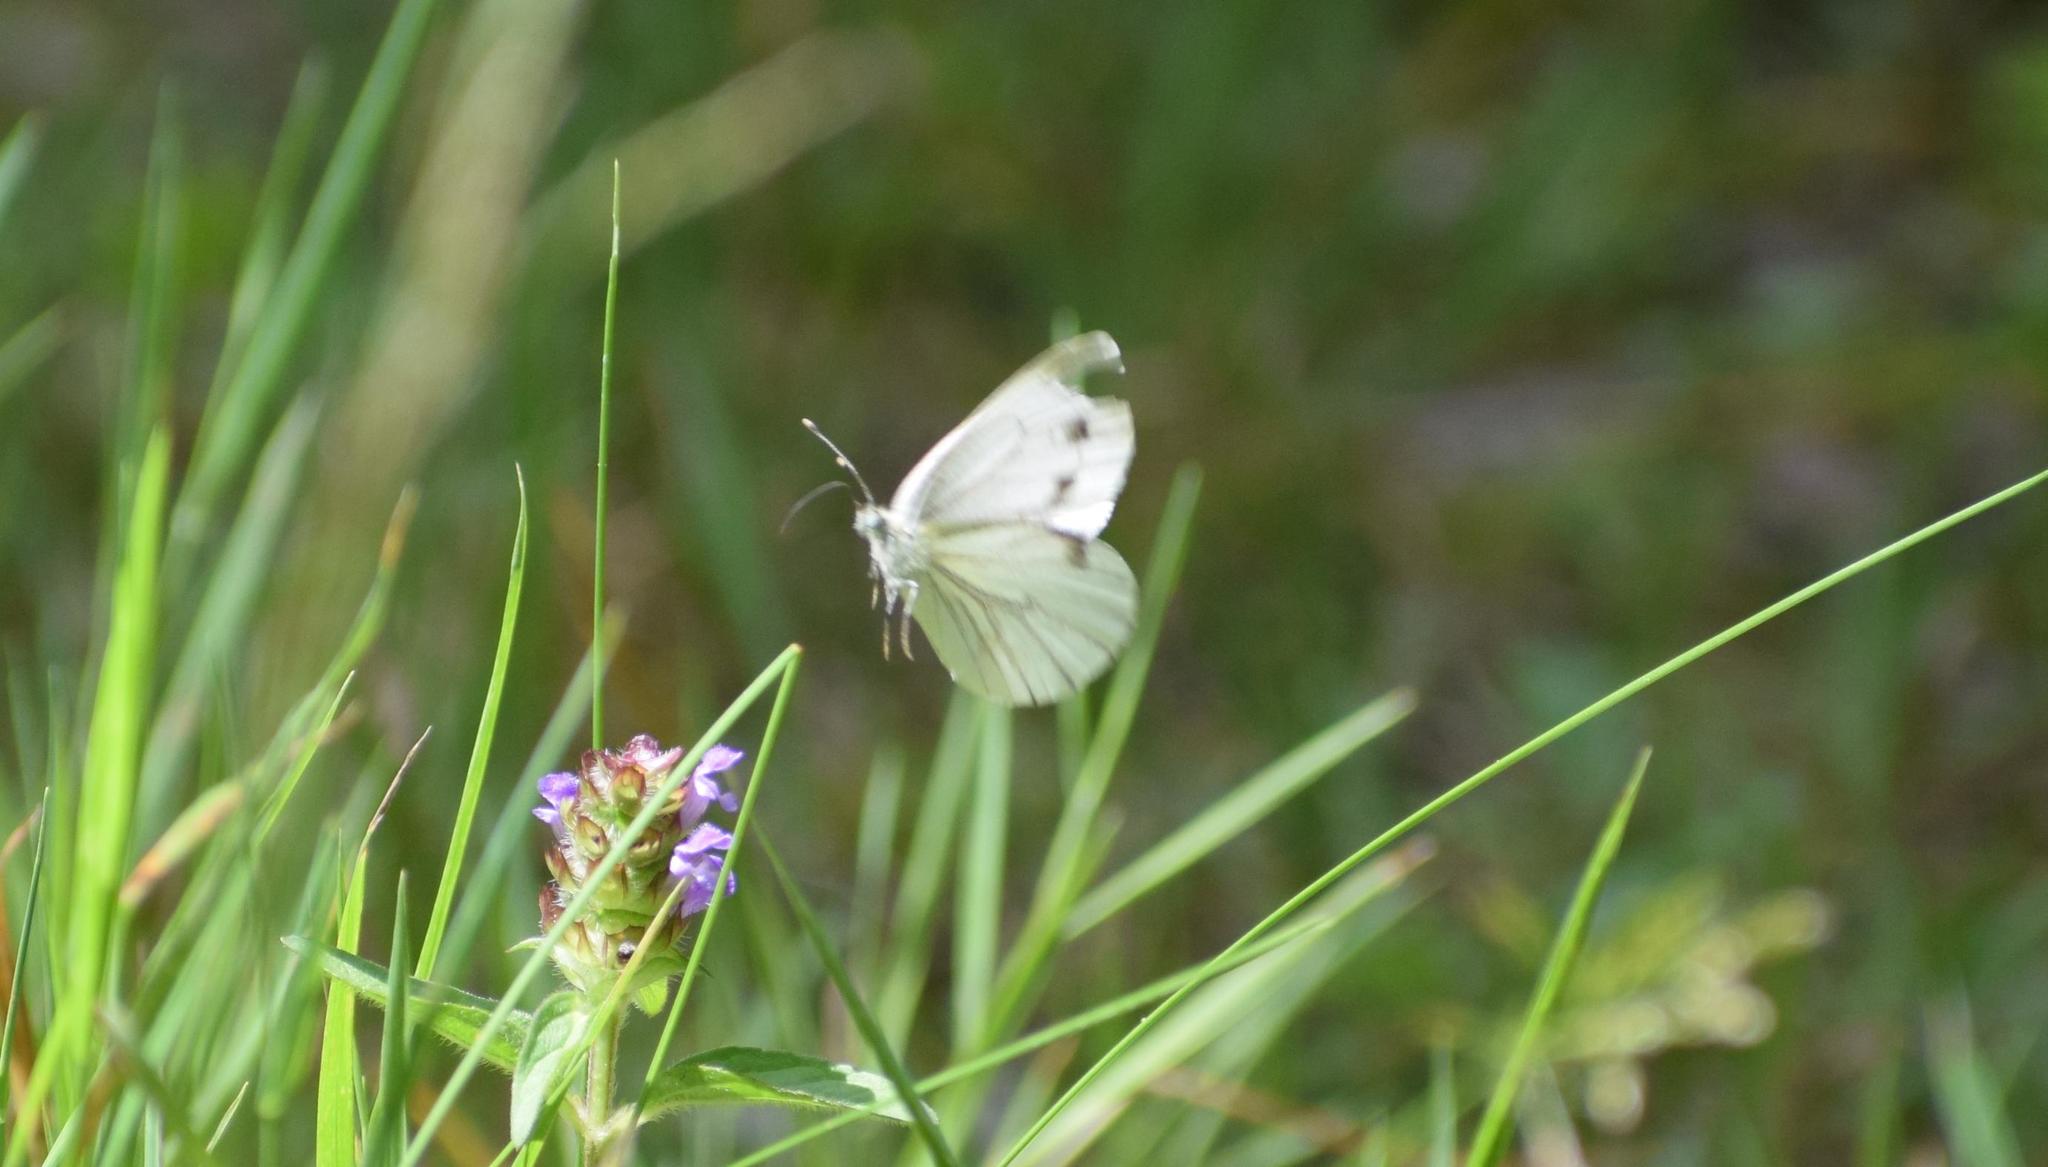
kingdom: Animalia
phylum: Arthropoda
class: Insecta
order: Lepidoptera
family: Pieridae
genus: Pieris
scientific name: Pieris napi
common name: Green-veined white
